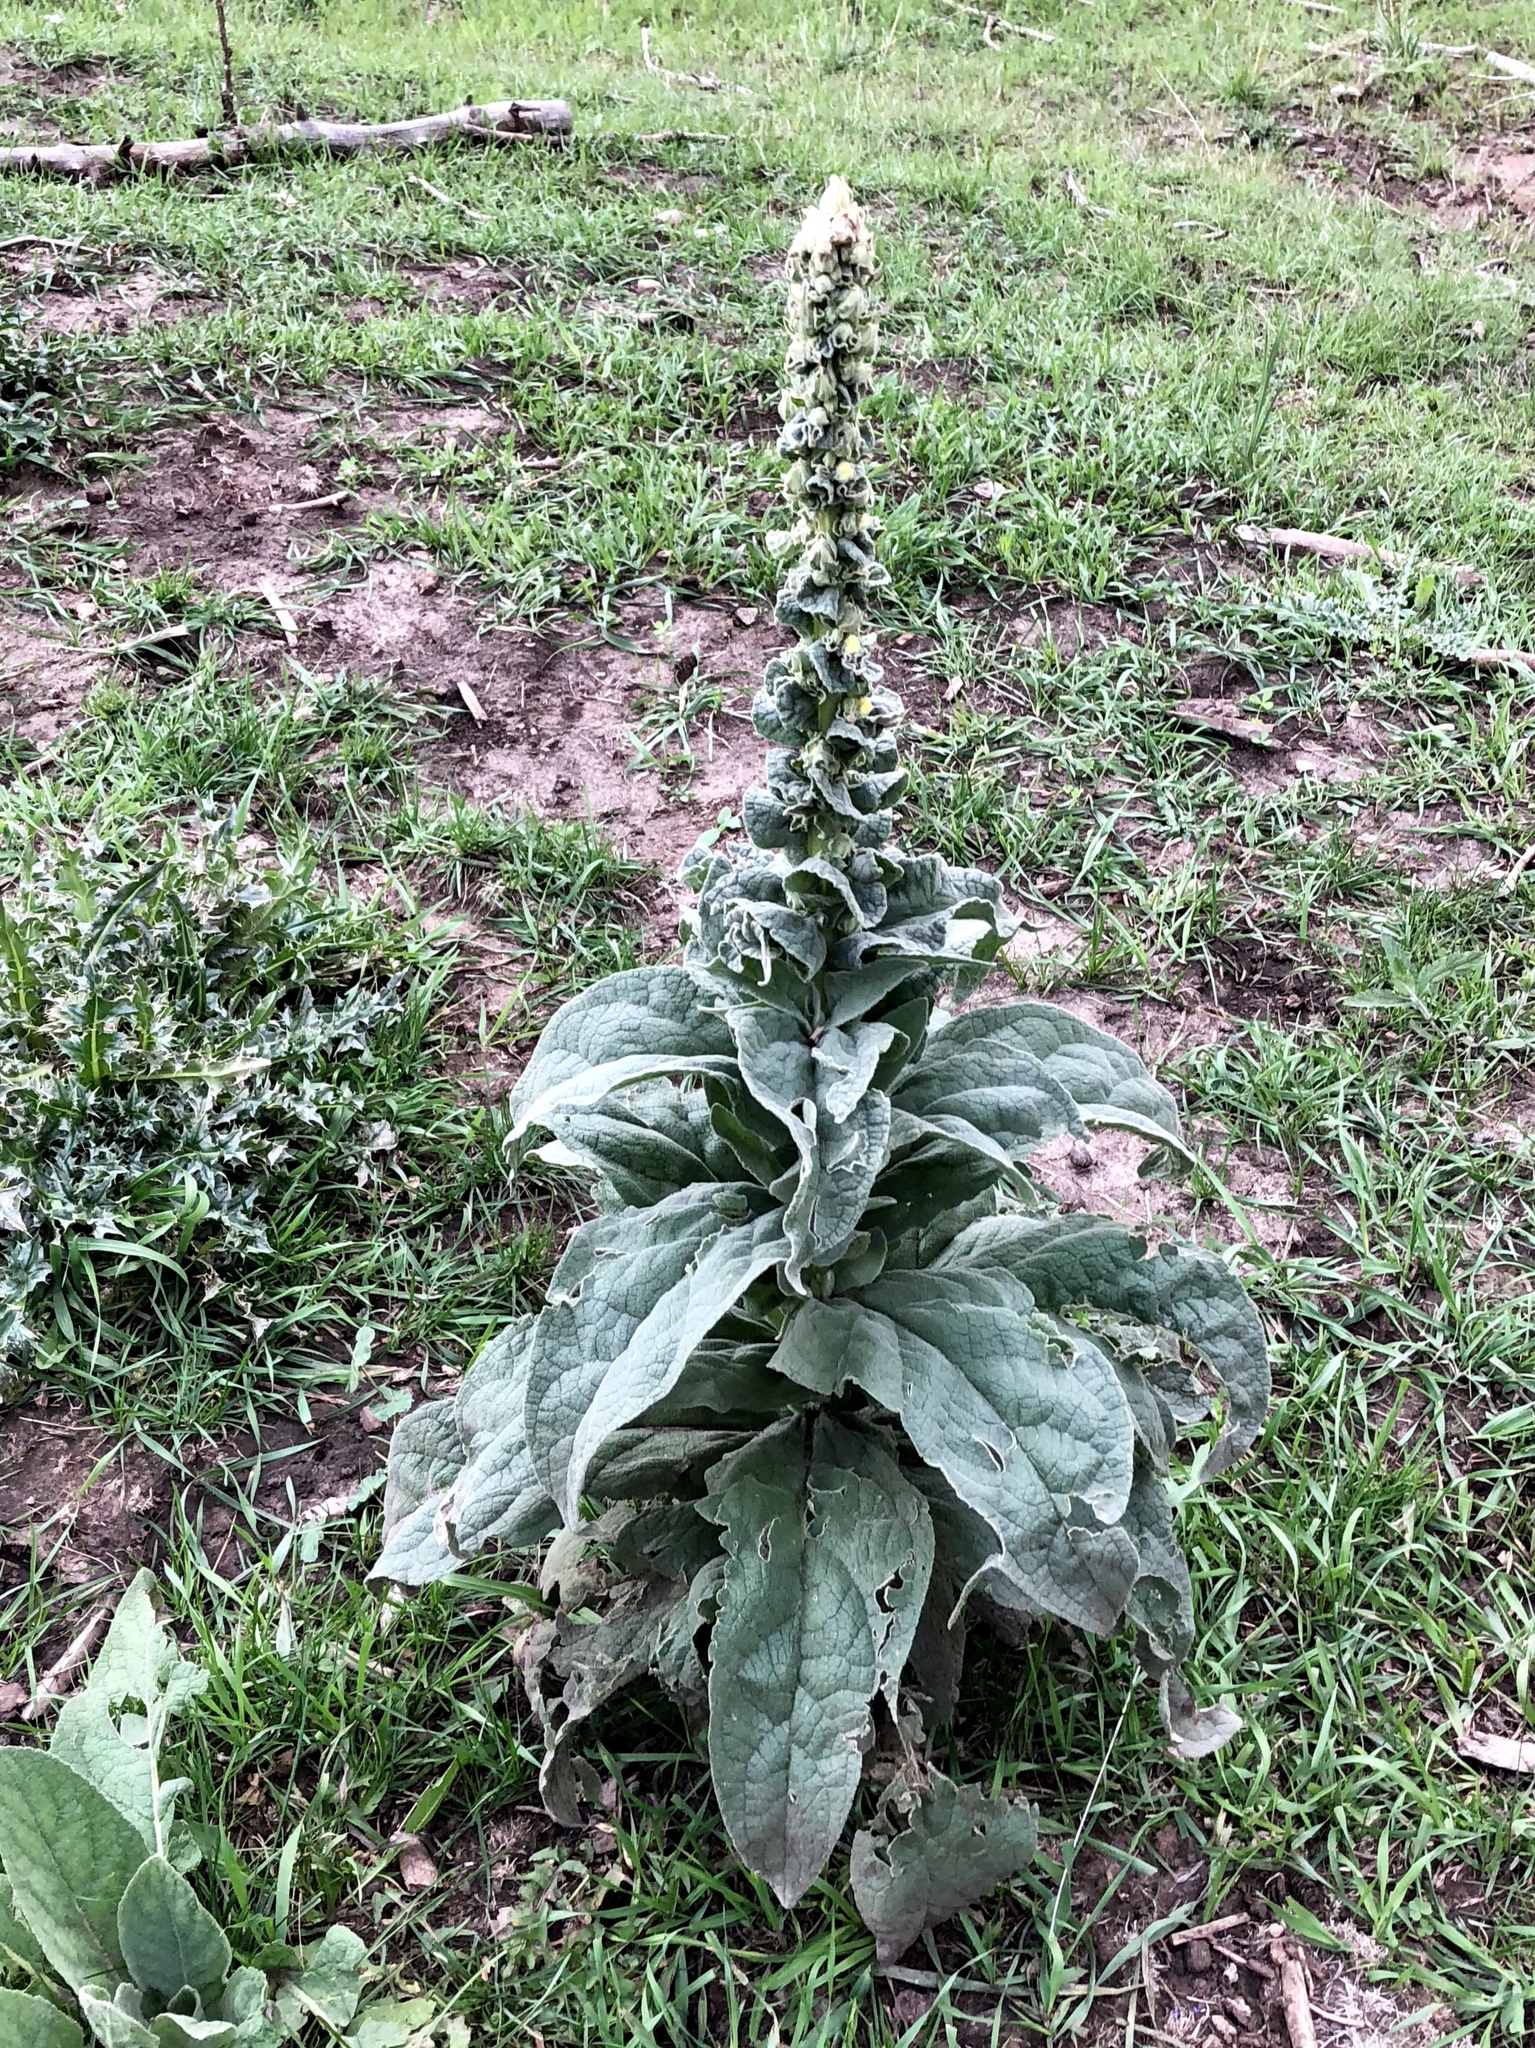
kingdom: Plantae
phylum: Tracheophyta
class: Magnoliopsida
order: Lamiales
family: Scrophulariaceae
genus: Verbascum
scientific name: Verbascum thapsus
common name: Common mullein
